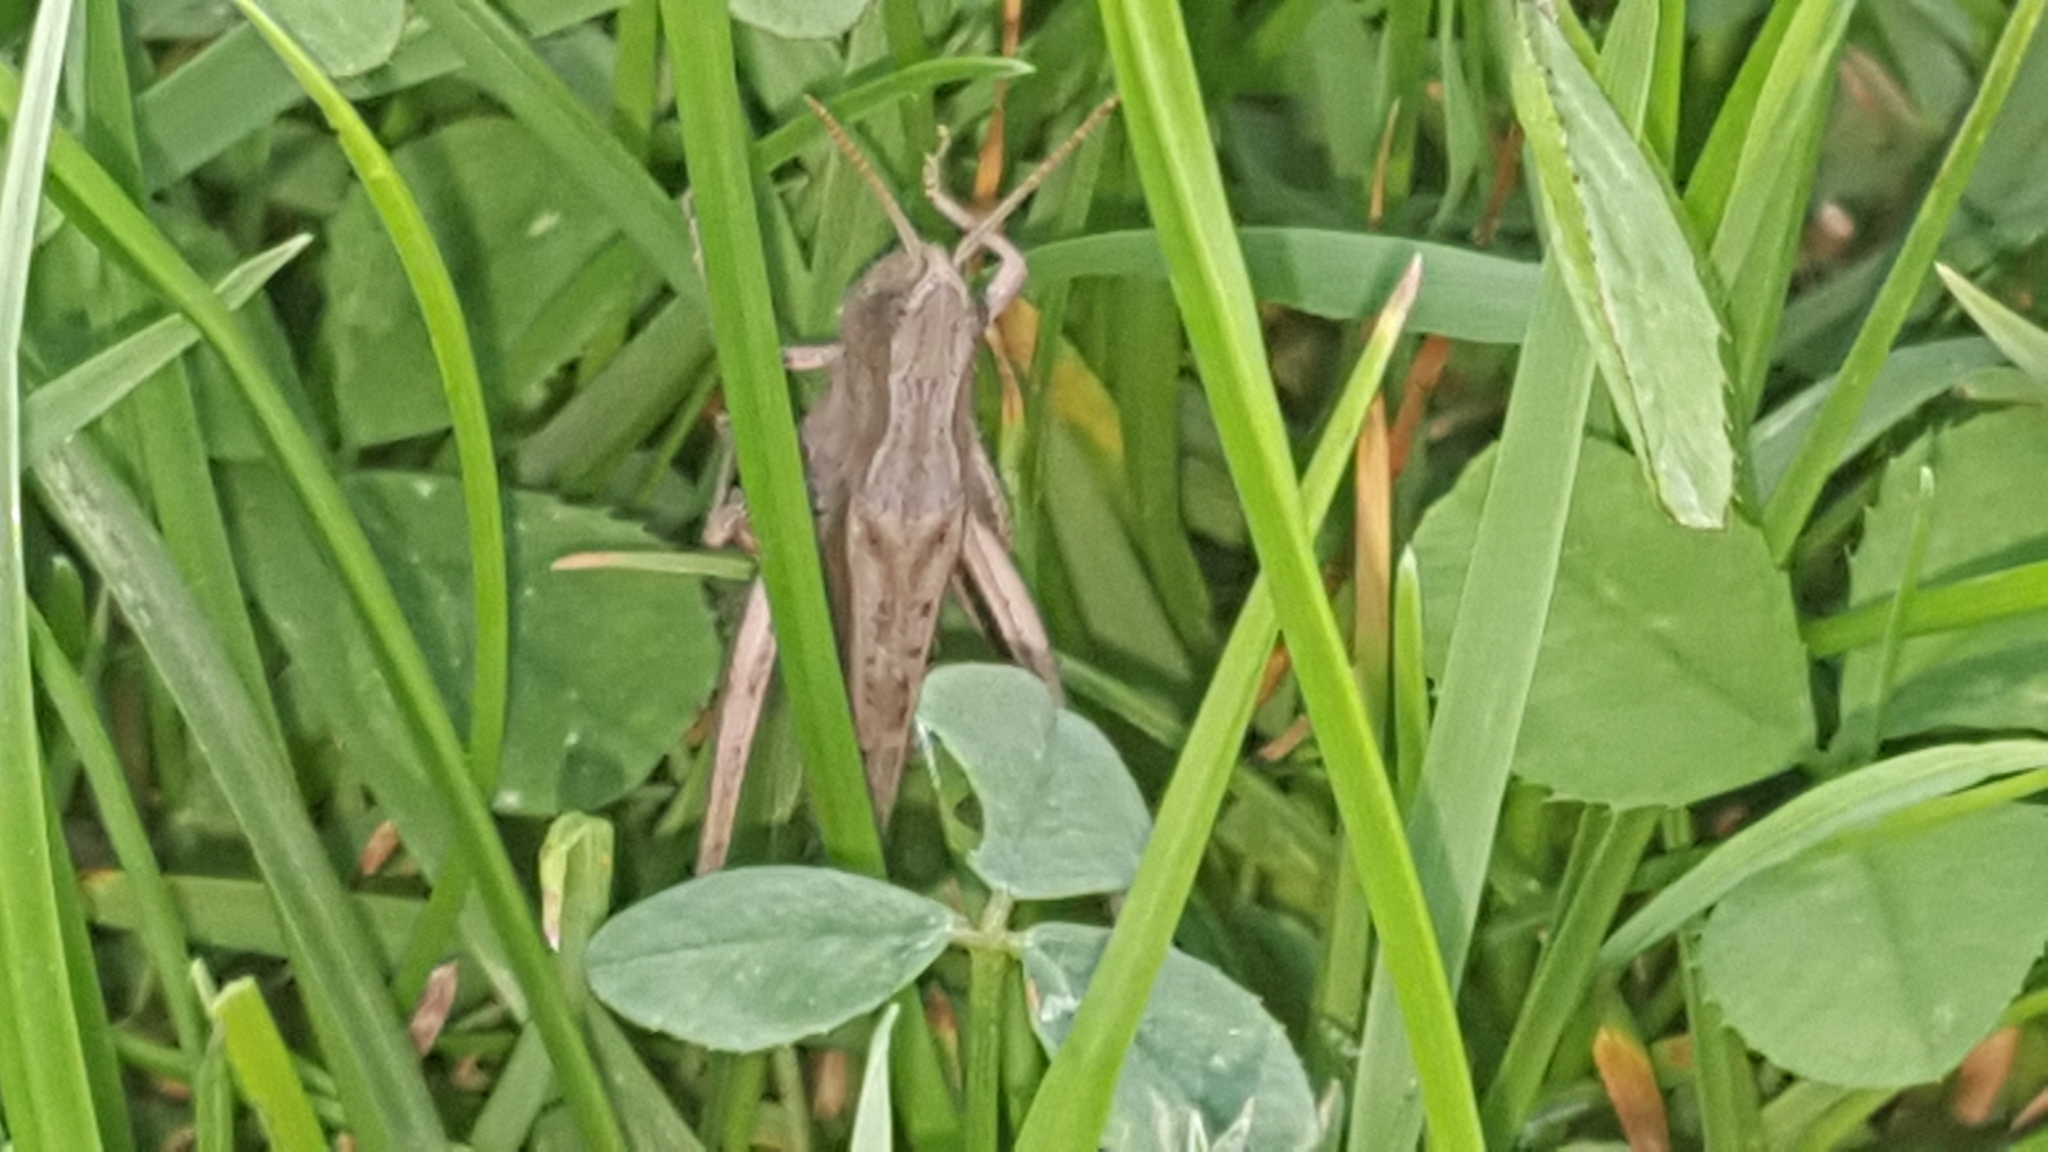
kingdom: Animalia
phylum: Arthropoda
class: Insecta
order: Orthoptera
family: Acrididae
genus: Chorthippus
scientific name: Chorthippus dorsatus
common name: Steppe grasshopper
